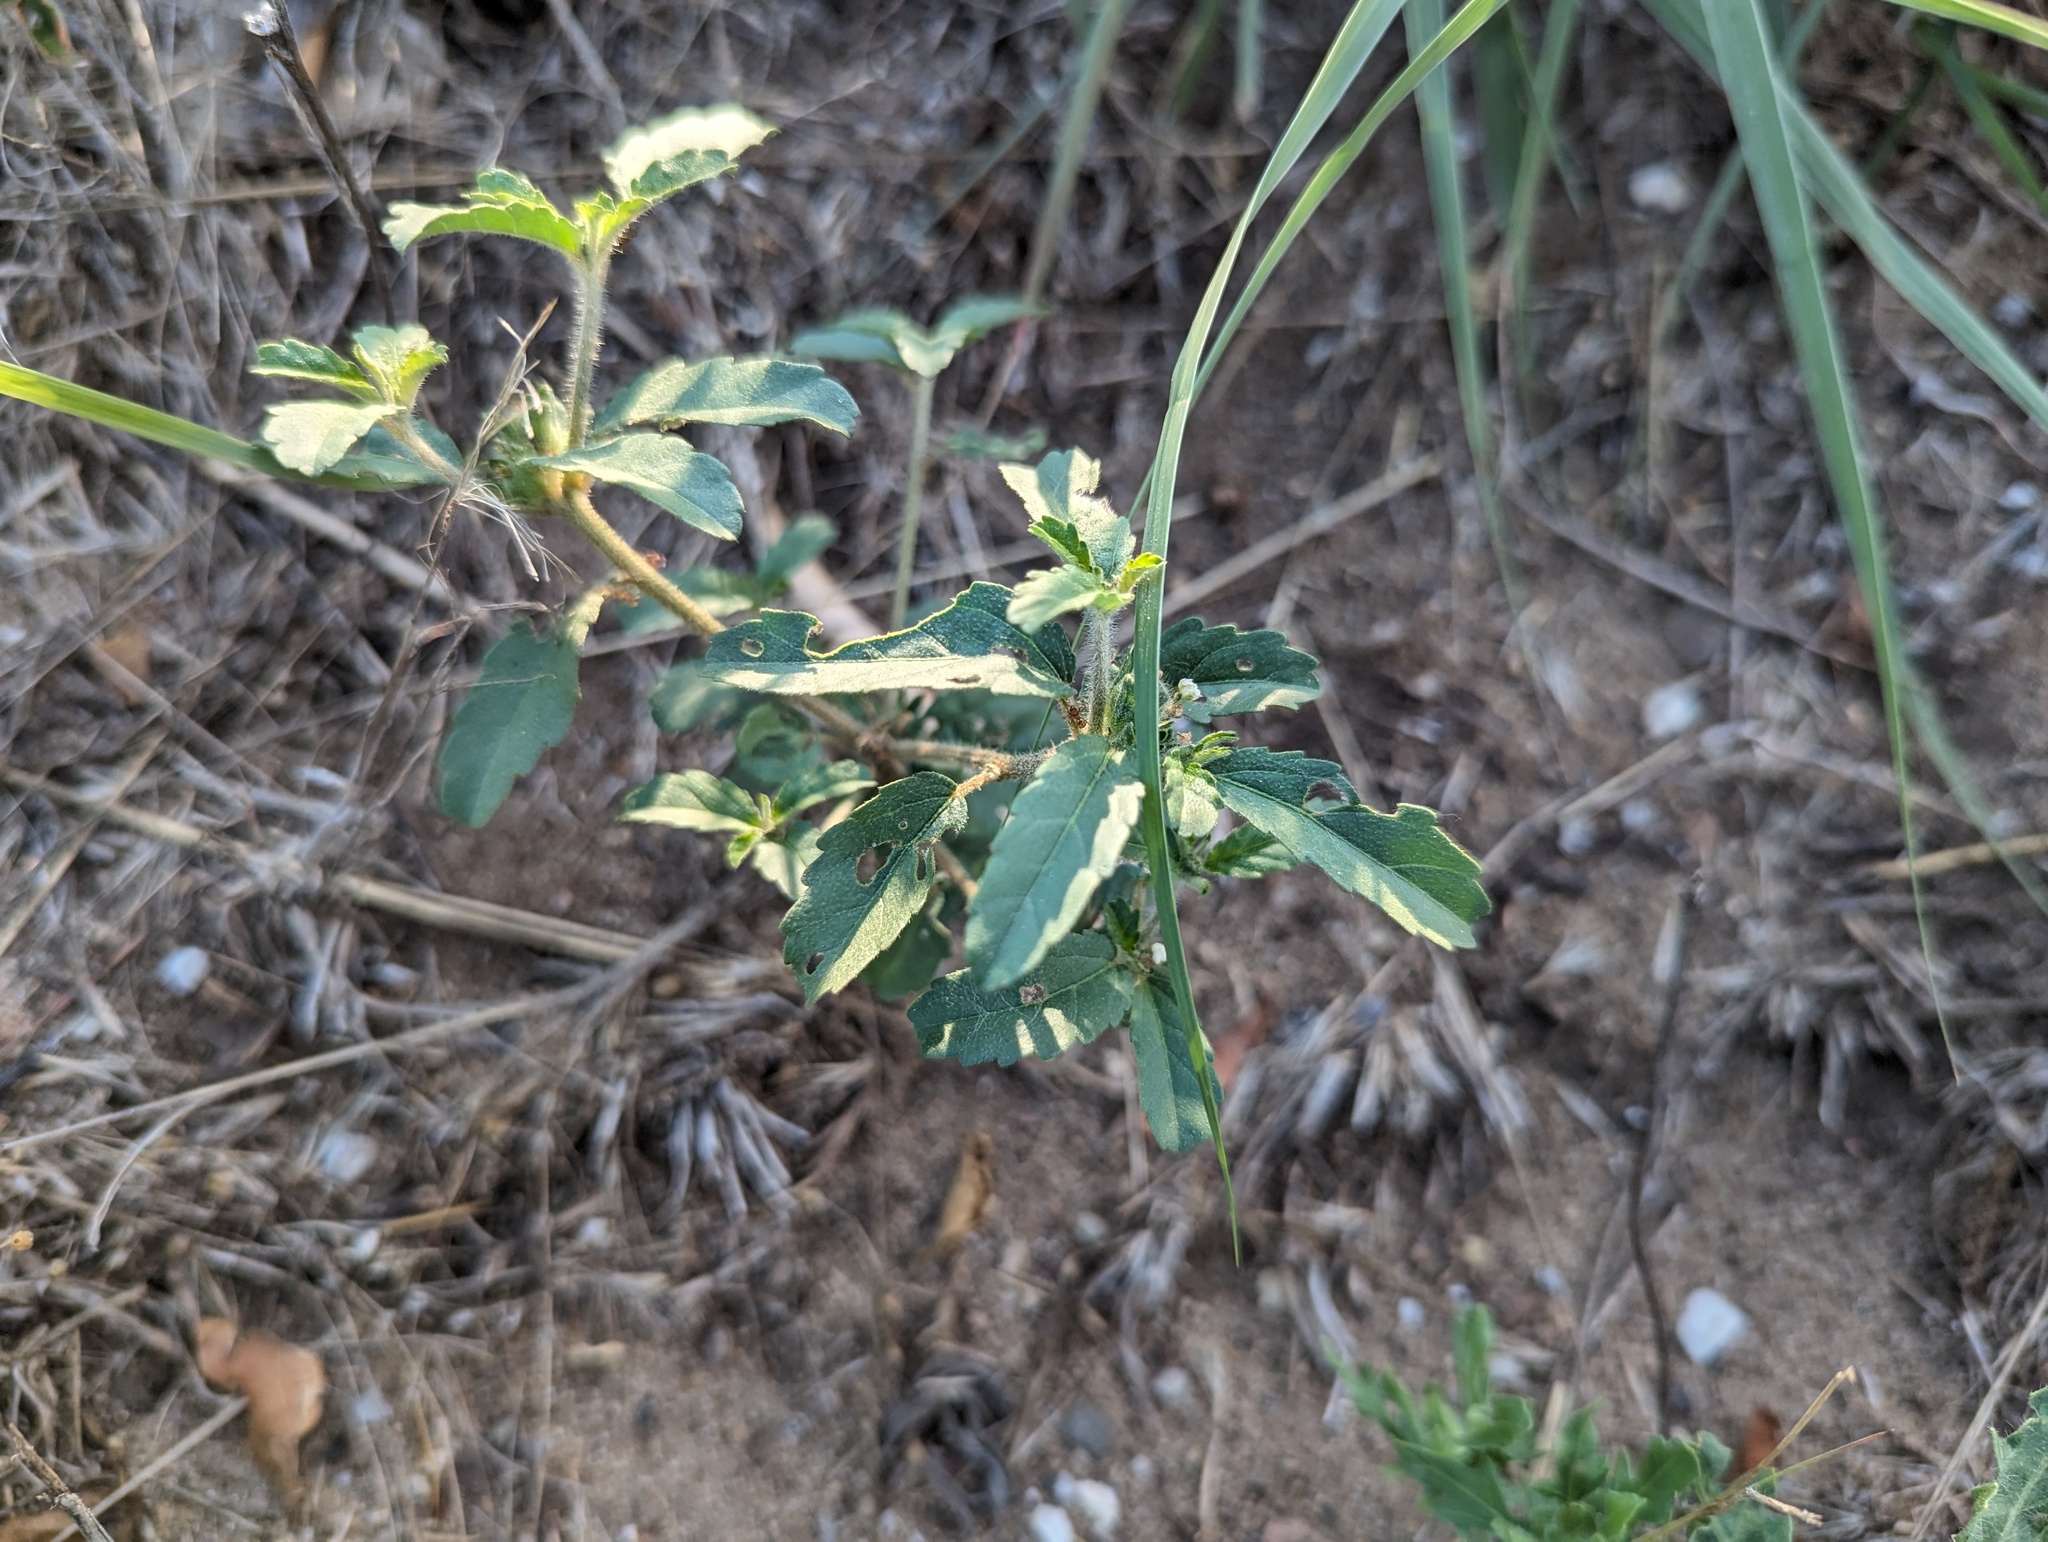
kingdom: Plantae
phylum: Tracheophyta
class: Magnoliopsida
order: Malpighiales
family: Euphorbiaceae
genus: Croton
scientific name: Croton glandulosus
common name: Tropic croton
